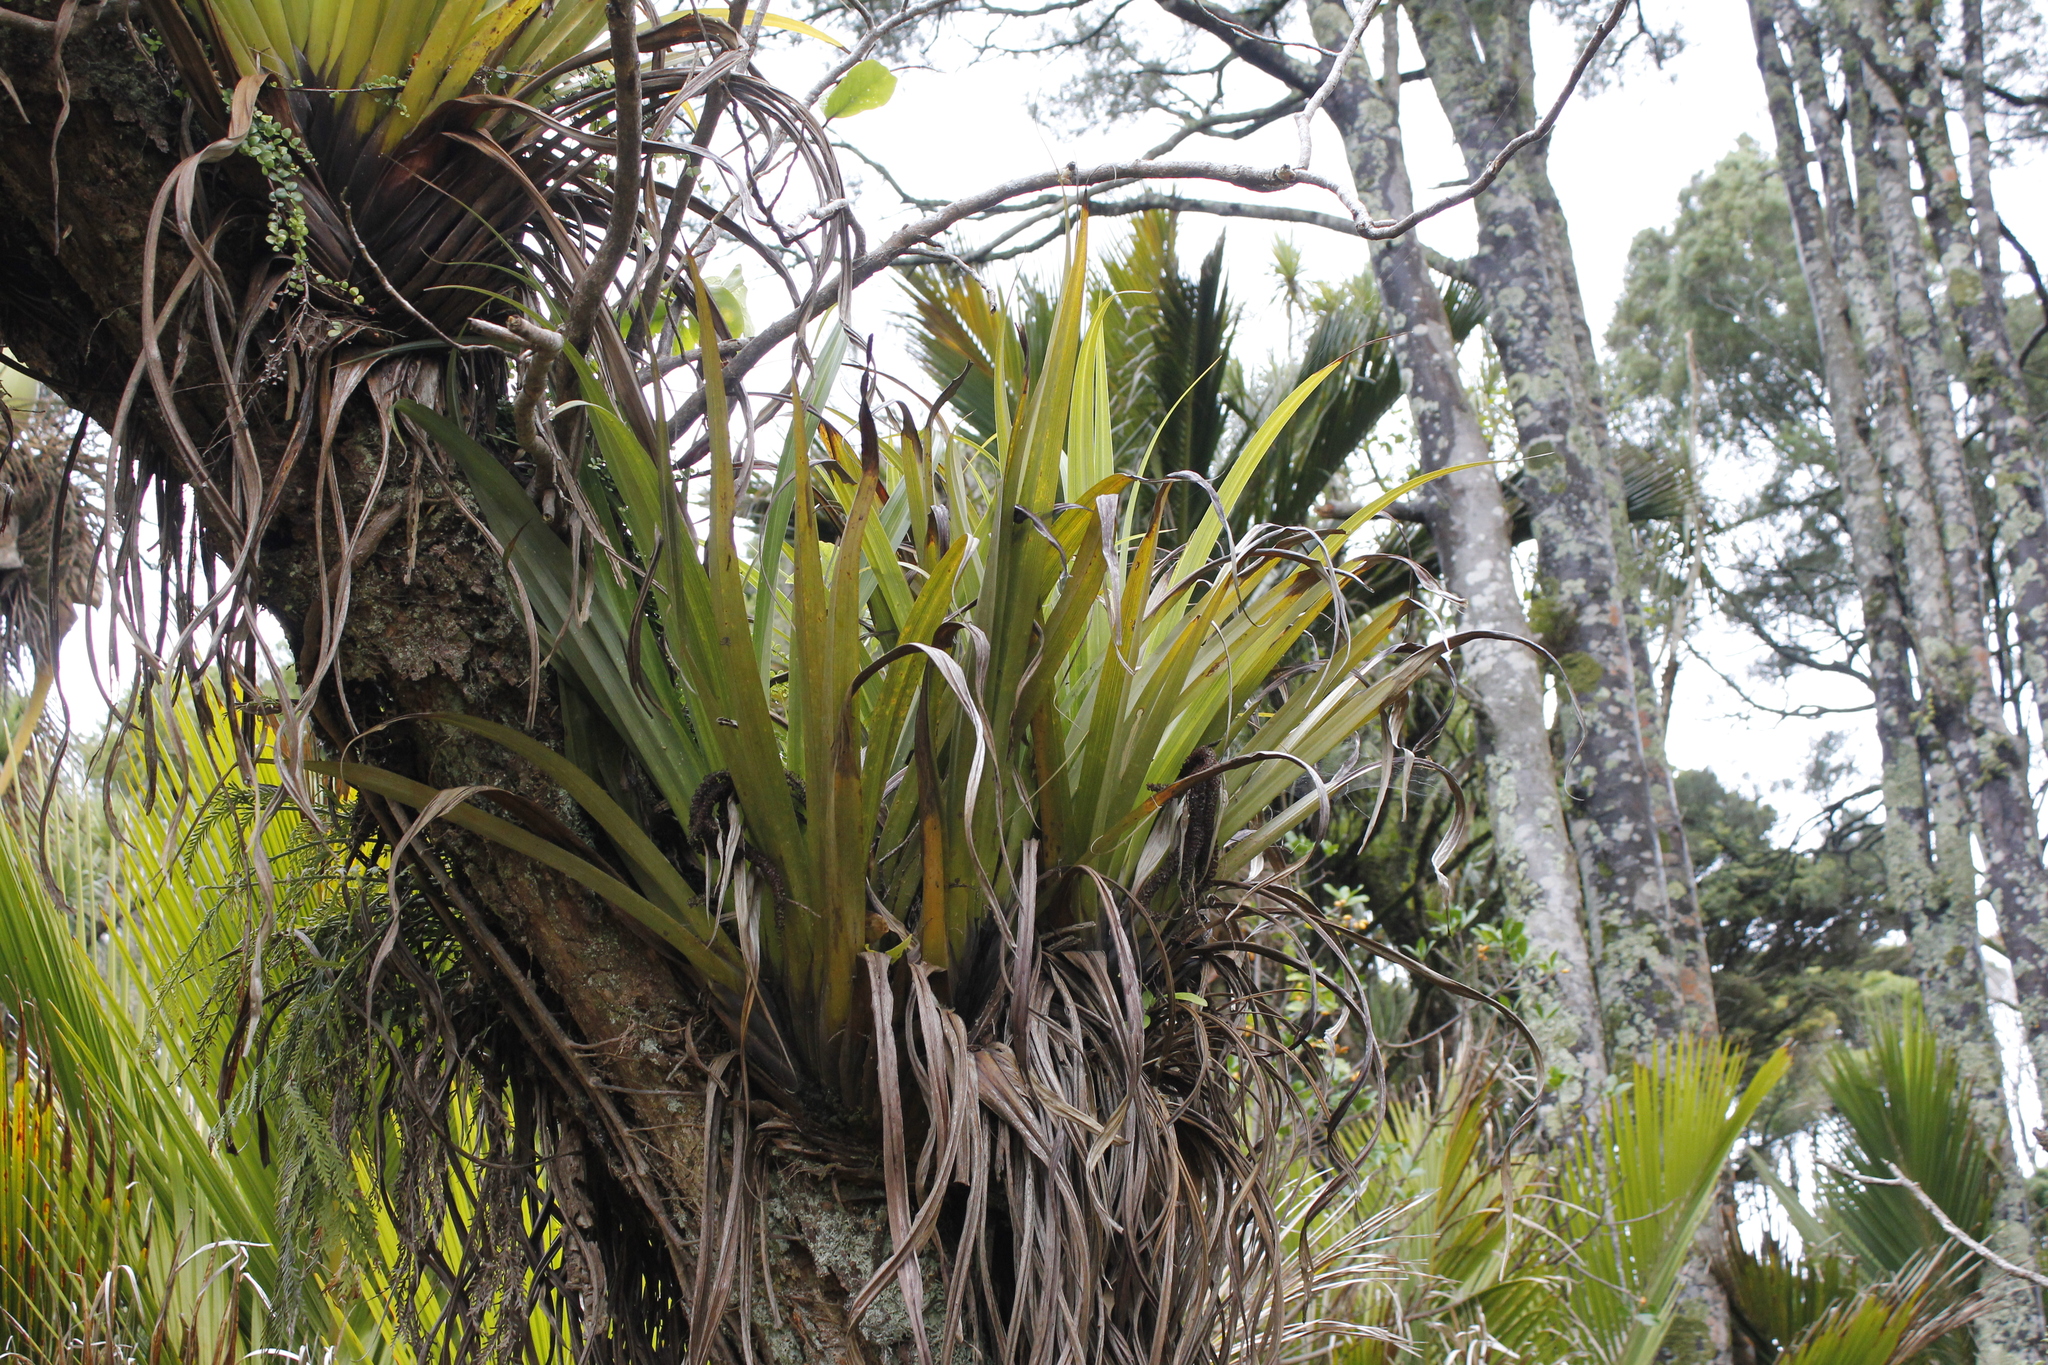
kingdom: Plantae
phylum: Tracheophyta
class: Liliopsida
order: Asparagales
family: Asteliaceae
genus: Astelia
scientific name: Astelia hastata
